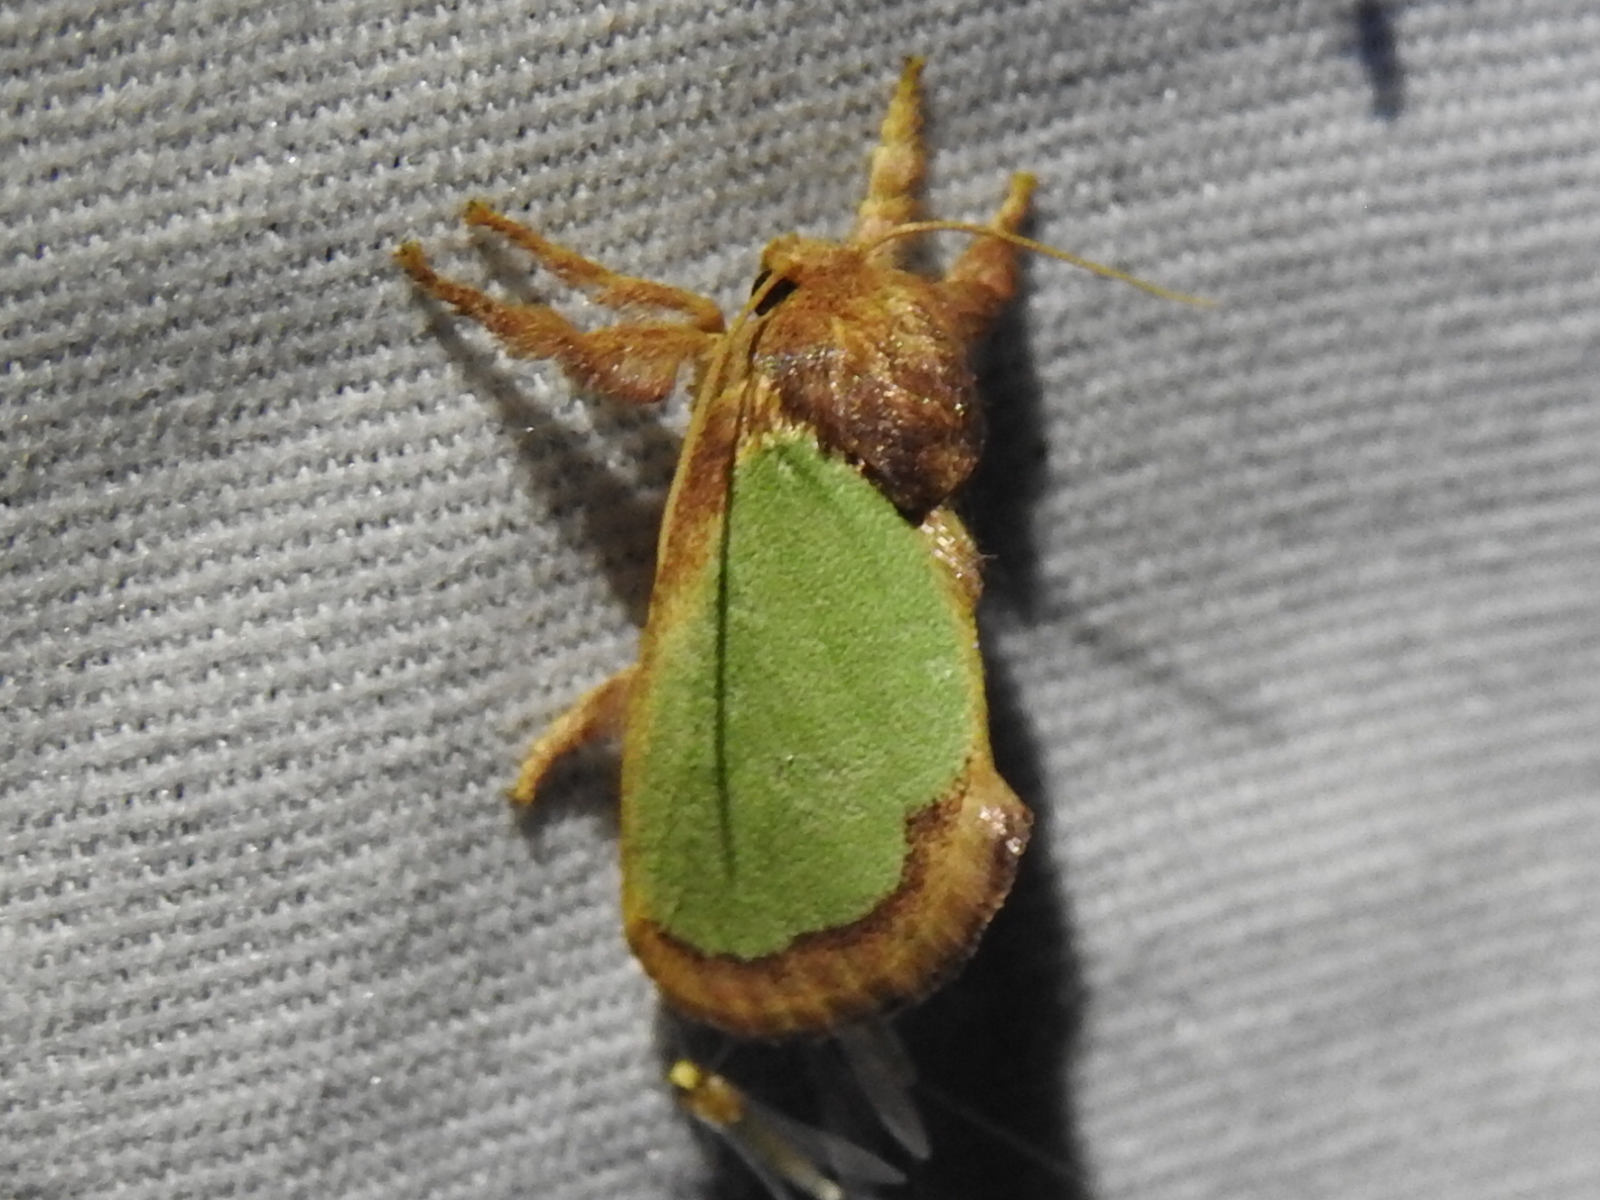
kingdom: Animalia
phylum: Arthropoda
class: Insecta
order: Lepidoptera
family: Limacodidae
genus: Euclea
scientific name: Euclea incisa
